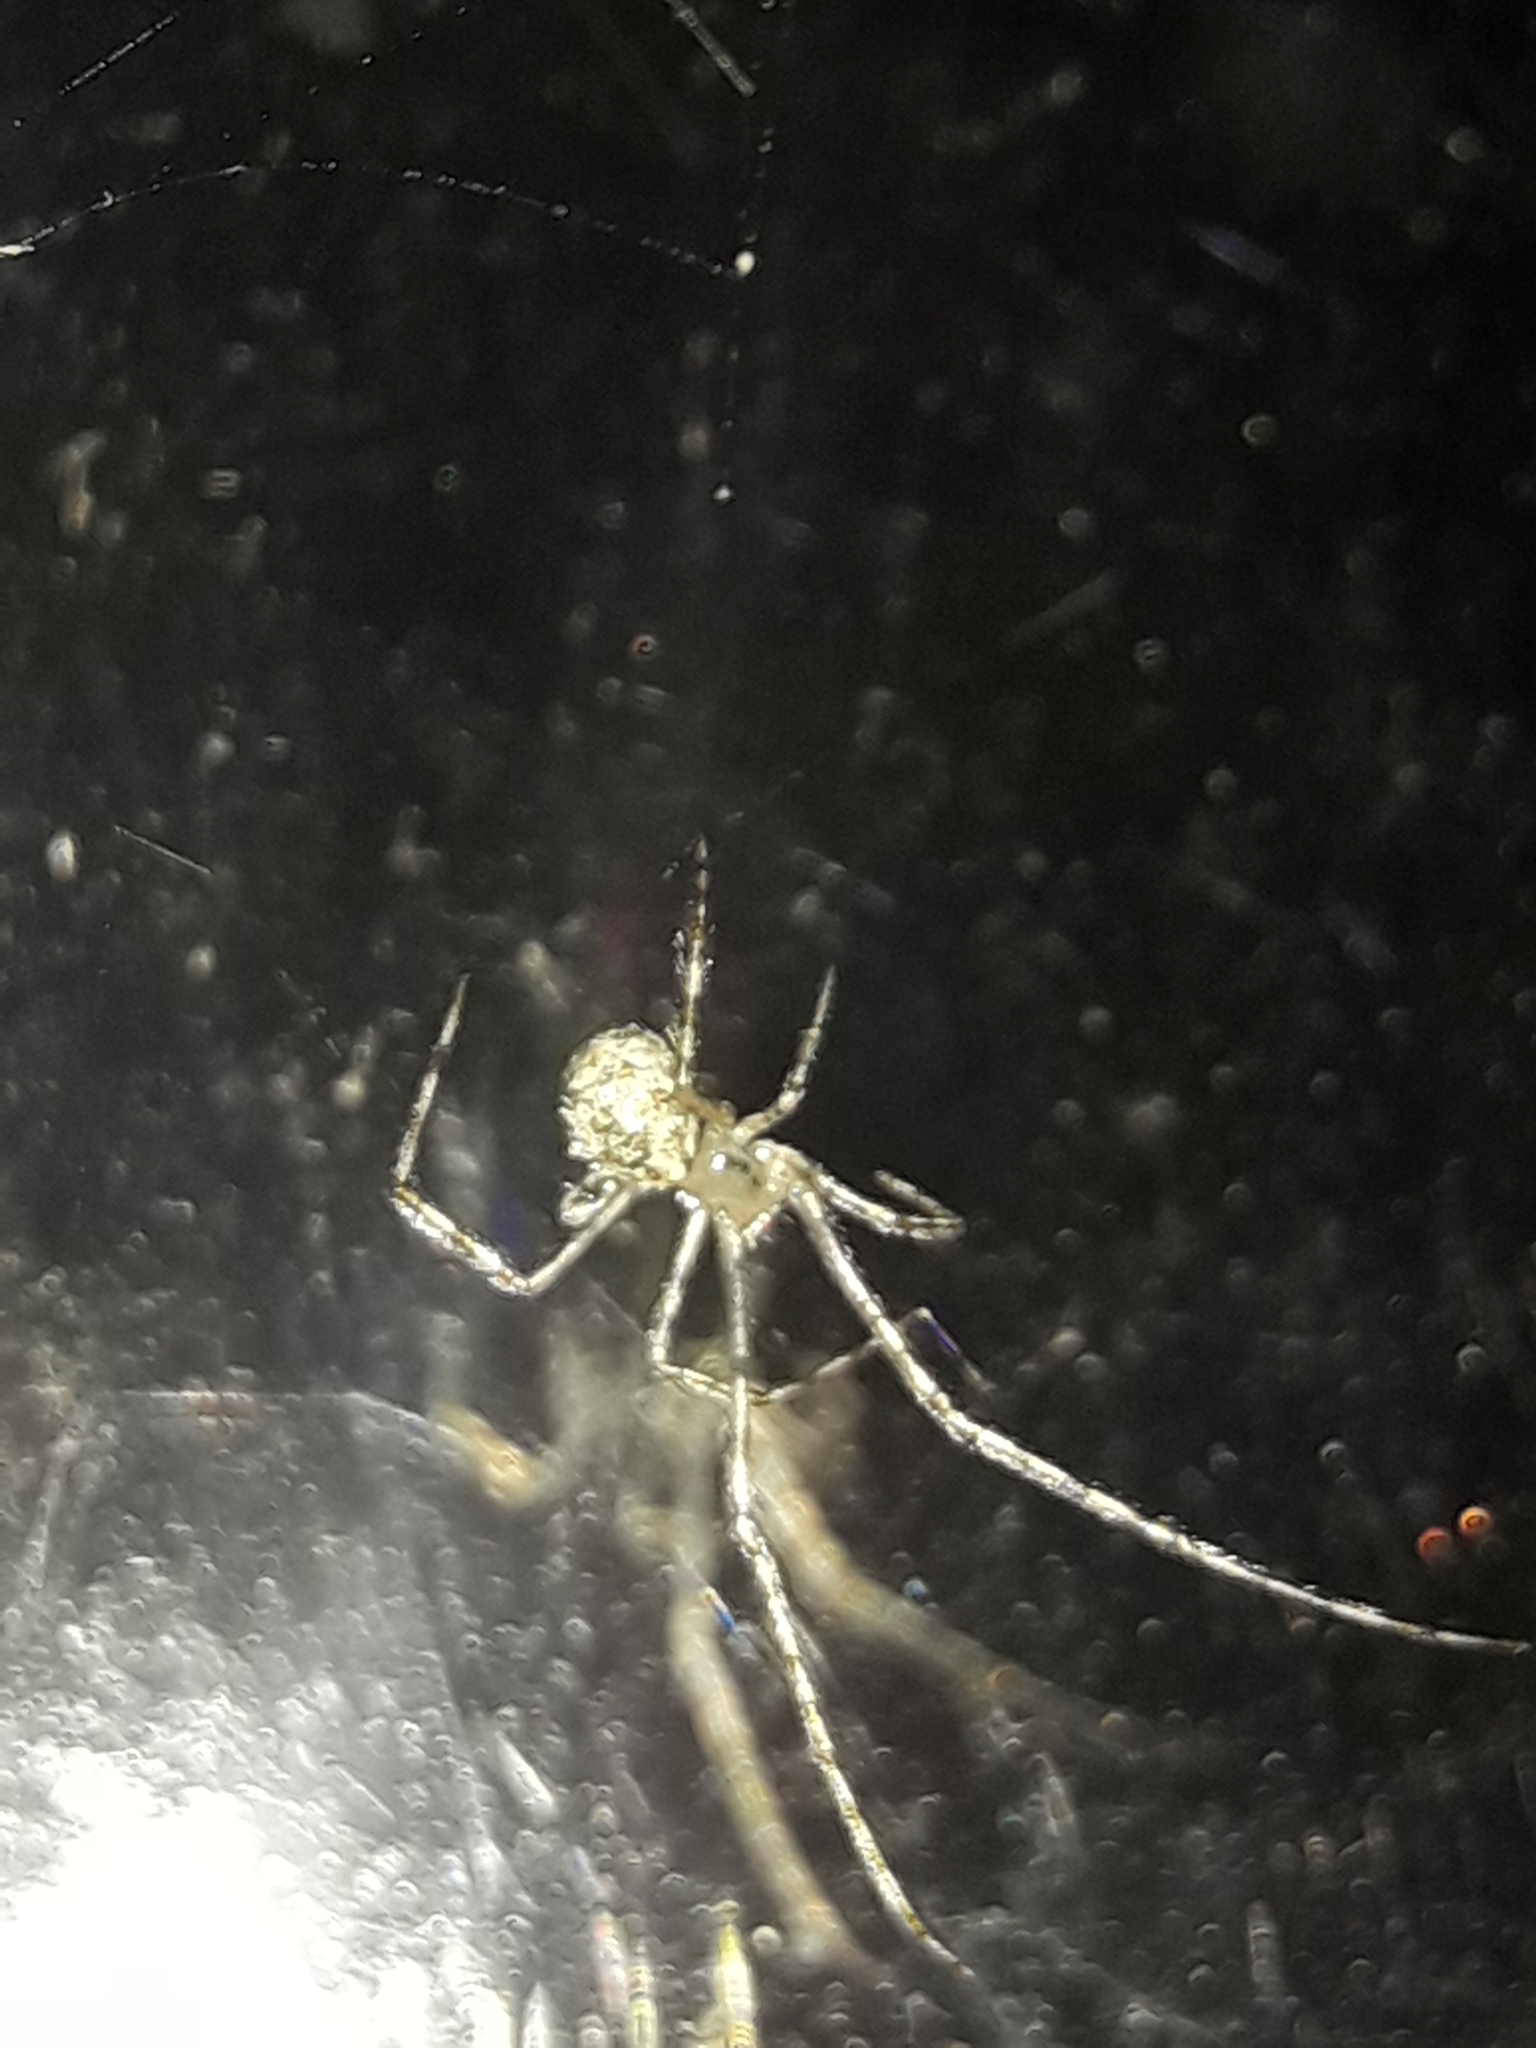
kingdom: Animalia
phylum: Arthropoda
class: Arachnida
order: Araneae
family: Theridiidae
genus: Cryptachaea
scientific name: Cryptachaea gigantipes
